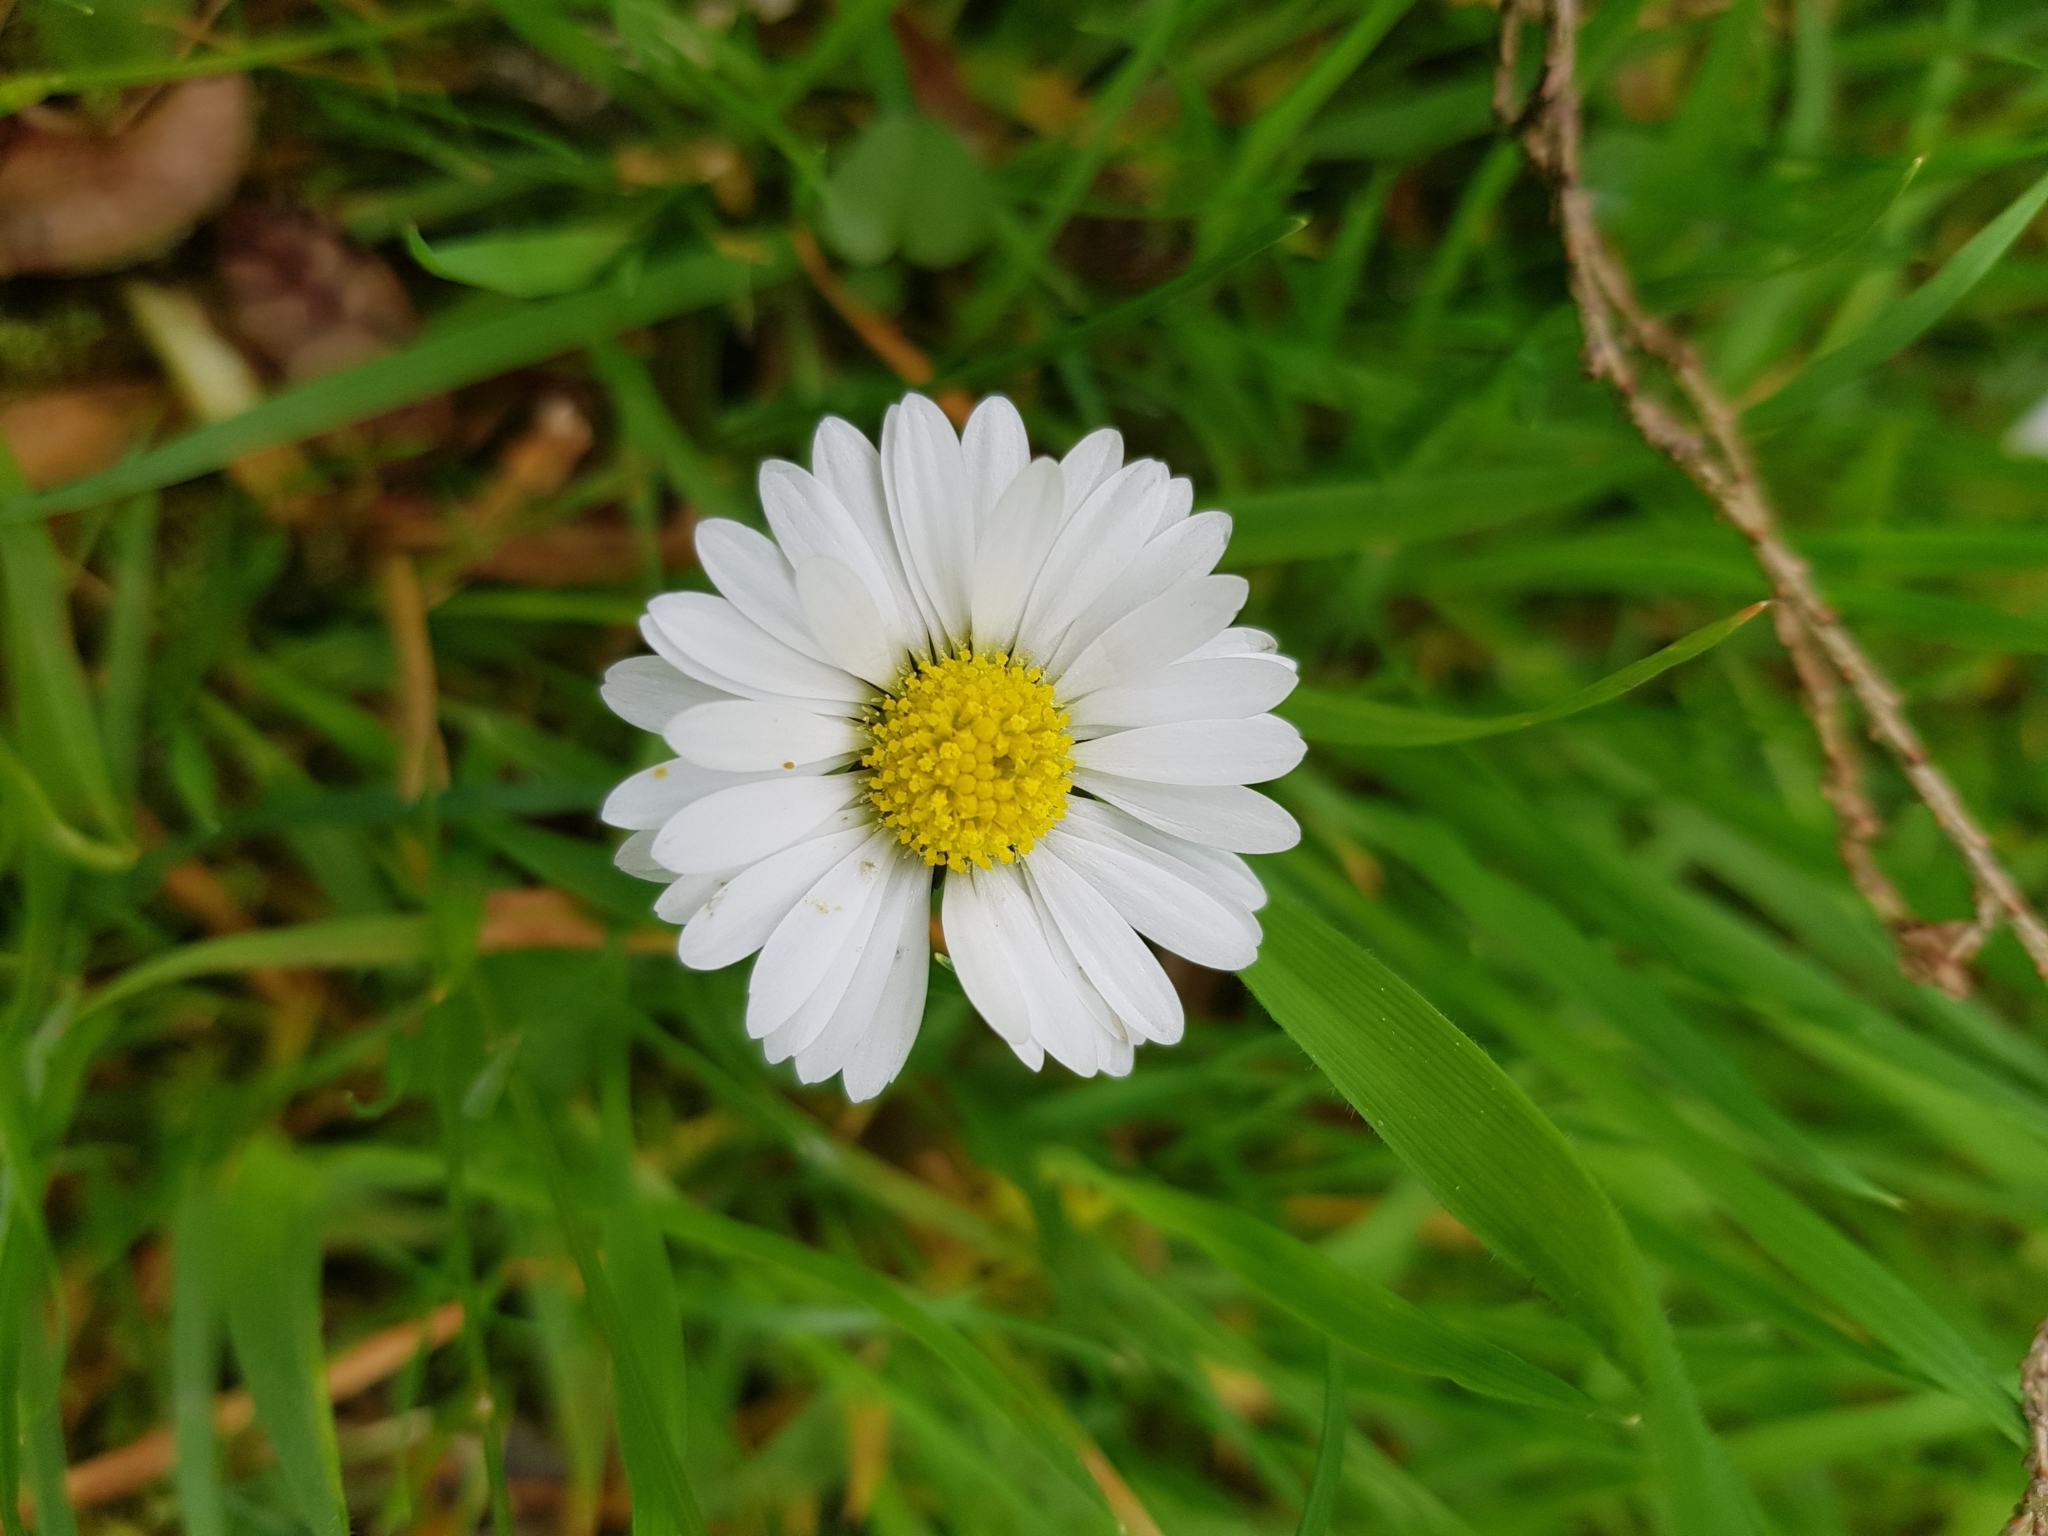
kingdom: Plantae
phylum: Tracheophyta
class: Magnoliopsida
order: Asterales
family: Asteraceae
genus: Bellis
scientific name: Bellis perennis
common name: Lawndaisy
